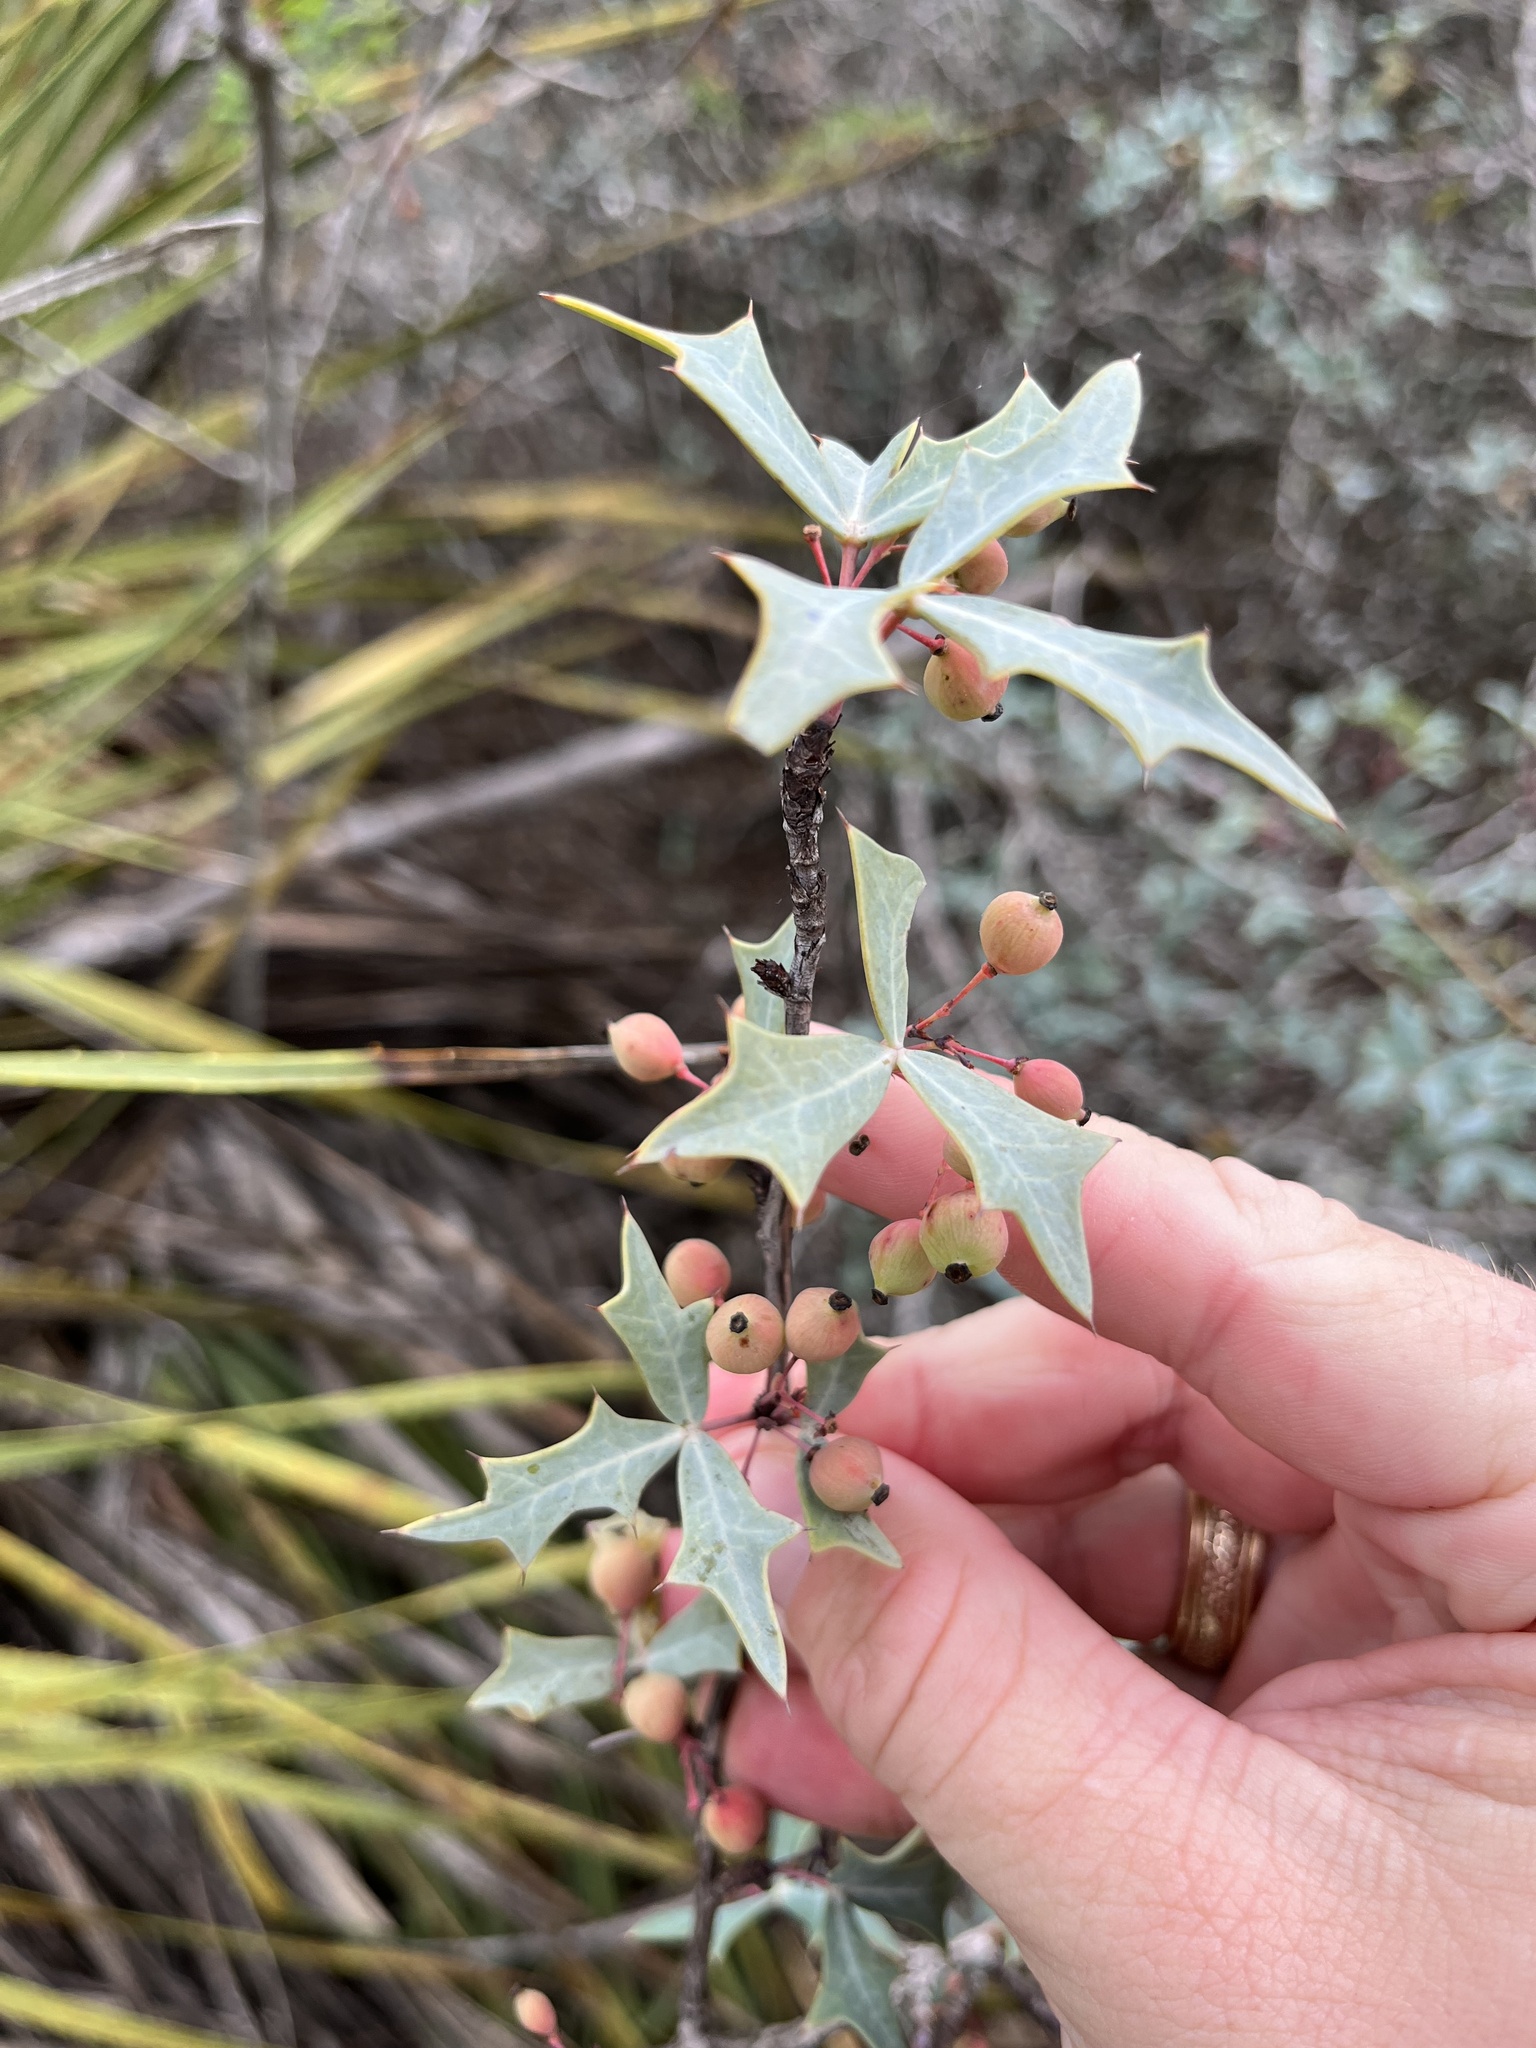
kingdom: Plantae
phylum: Tracheophyta
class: Magnoliopsida
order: Ranunculales
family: Berberidaceae
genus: Alloberberis
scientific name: Alloberberis trifoliolata
